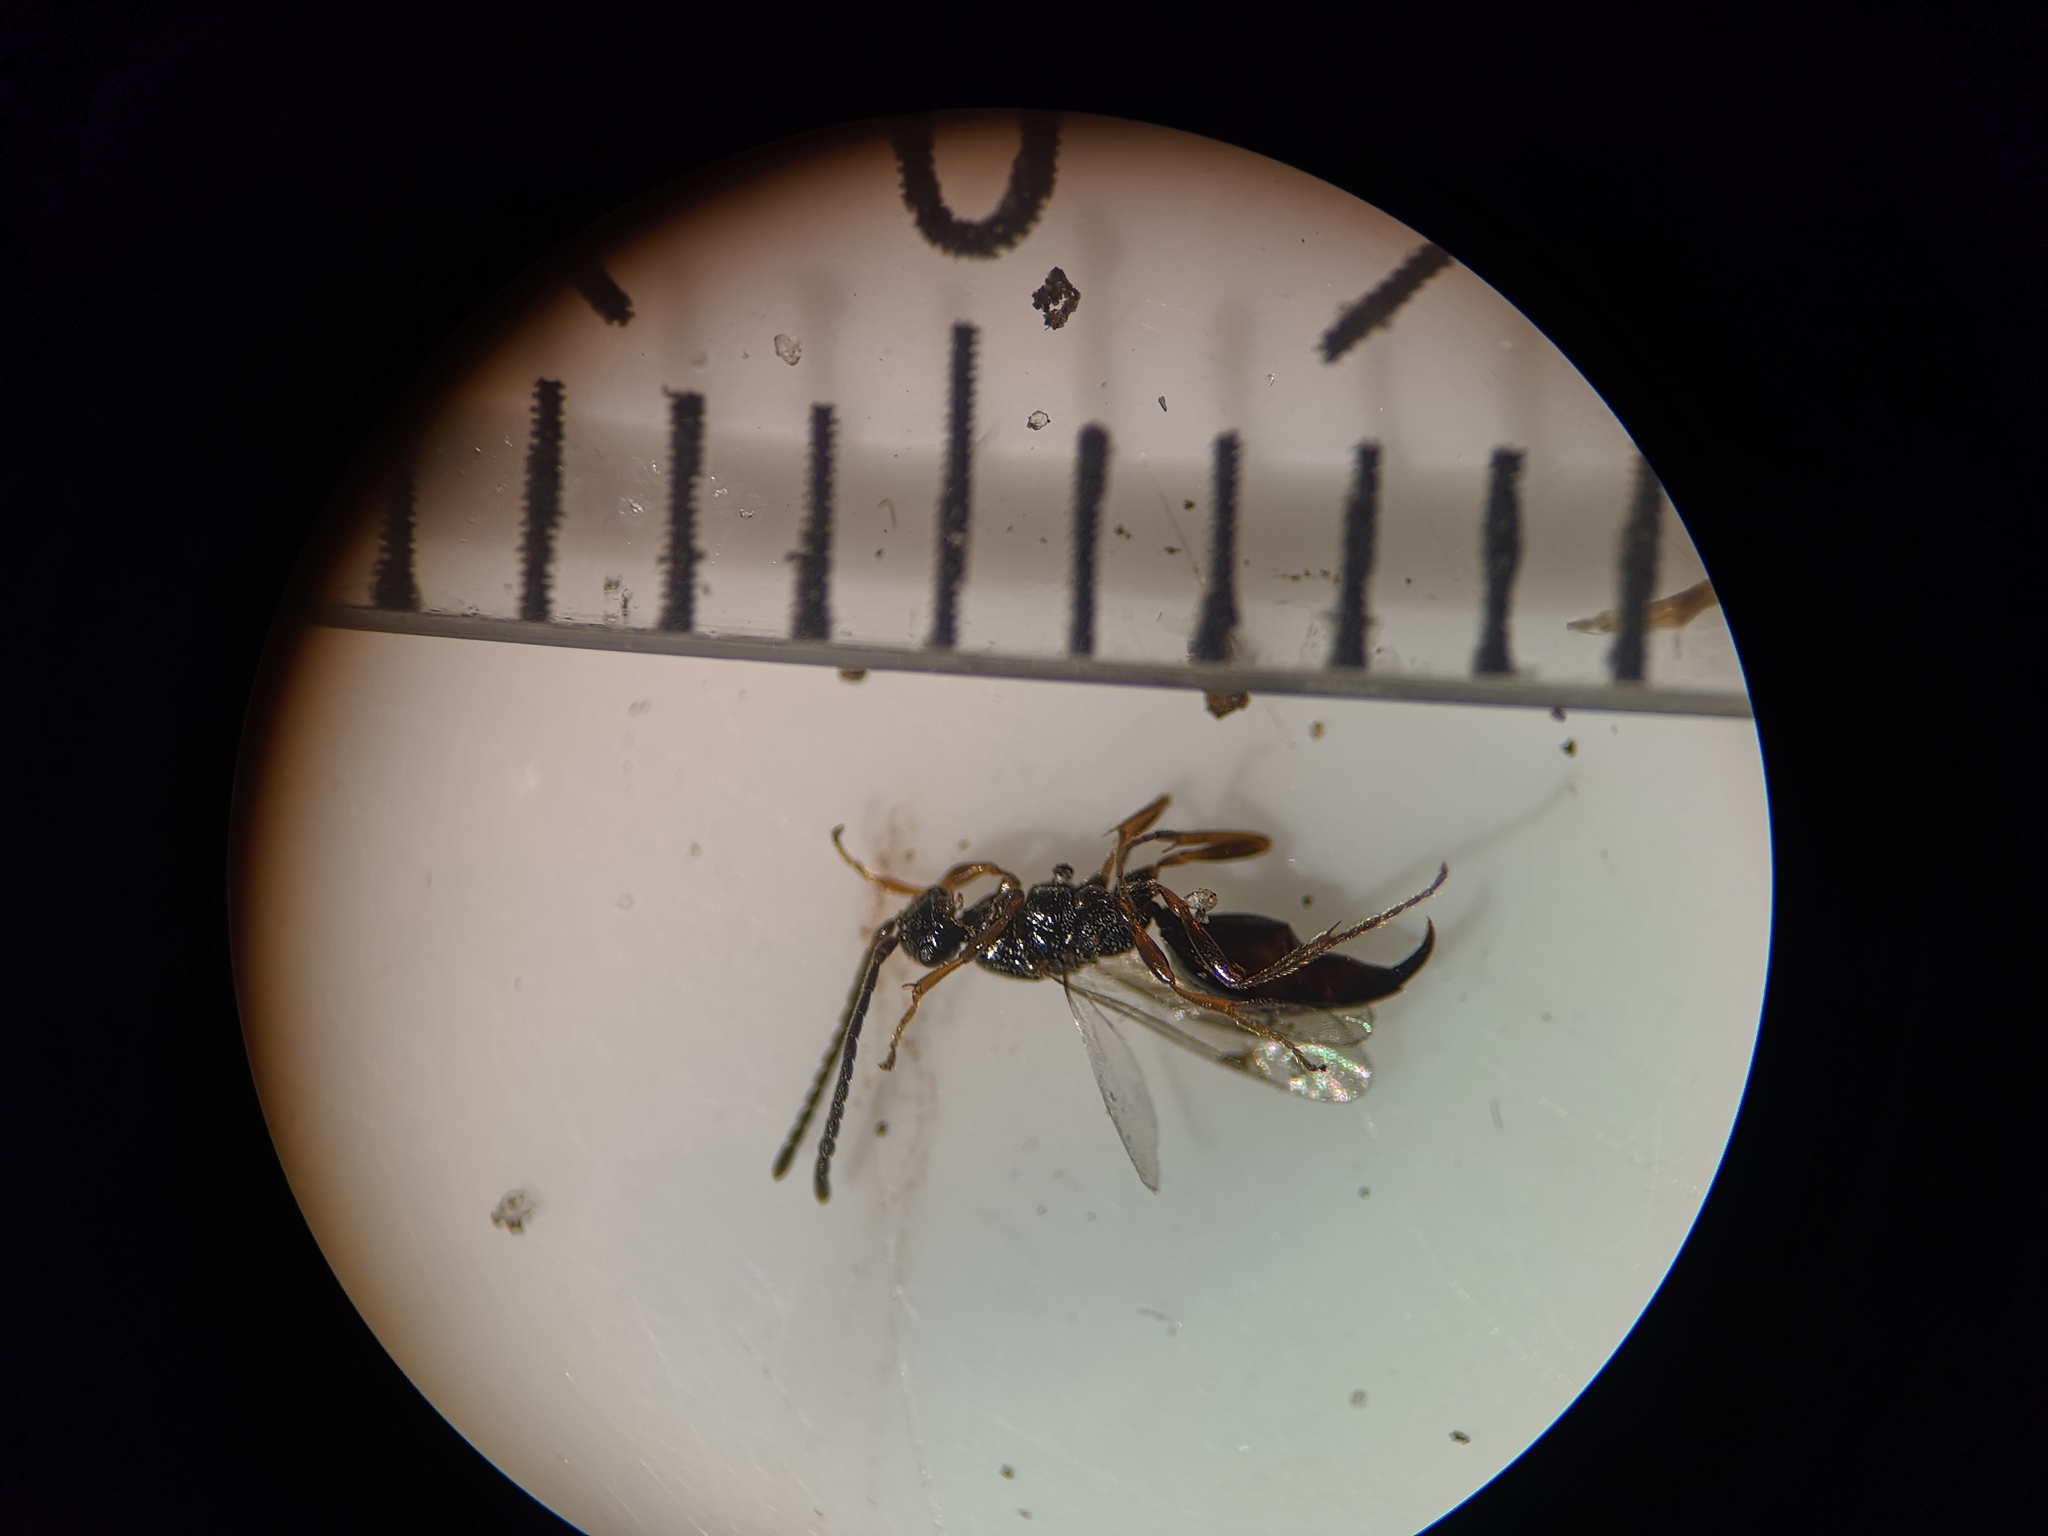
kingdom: Animalia
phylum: Arthropoda
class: Insecta
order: Hymenoptera
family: Proctotrupidae
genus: Parthenocodrus
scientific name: Parthenocodrus elongatus
